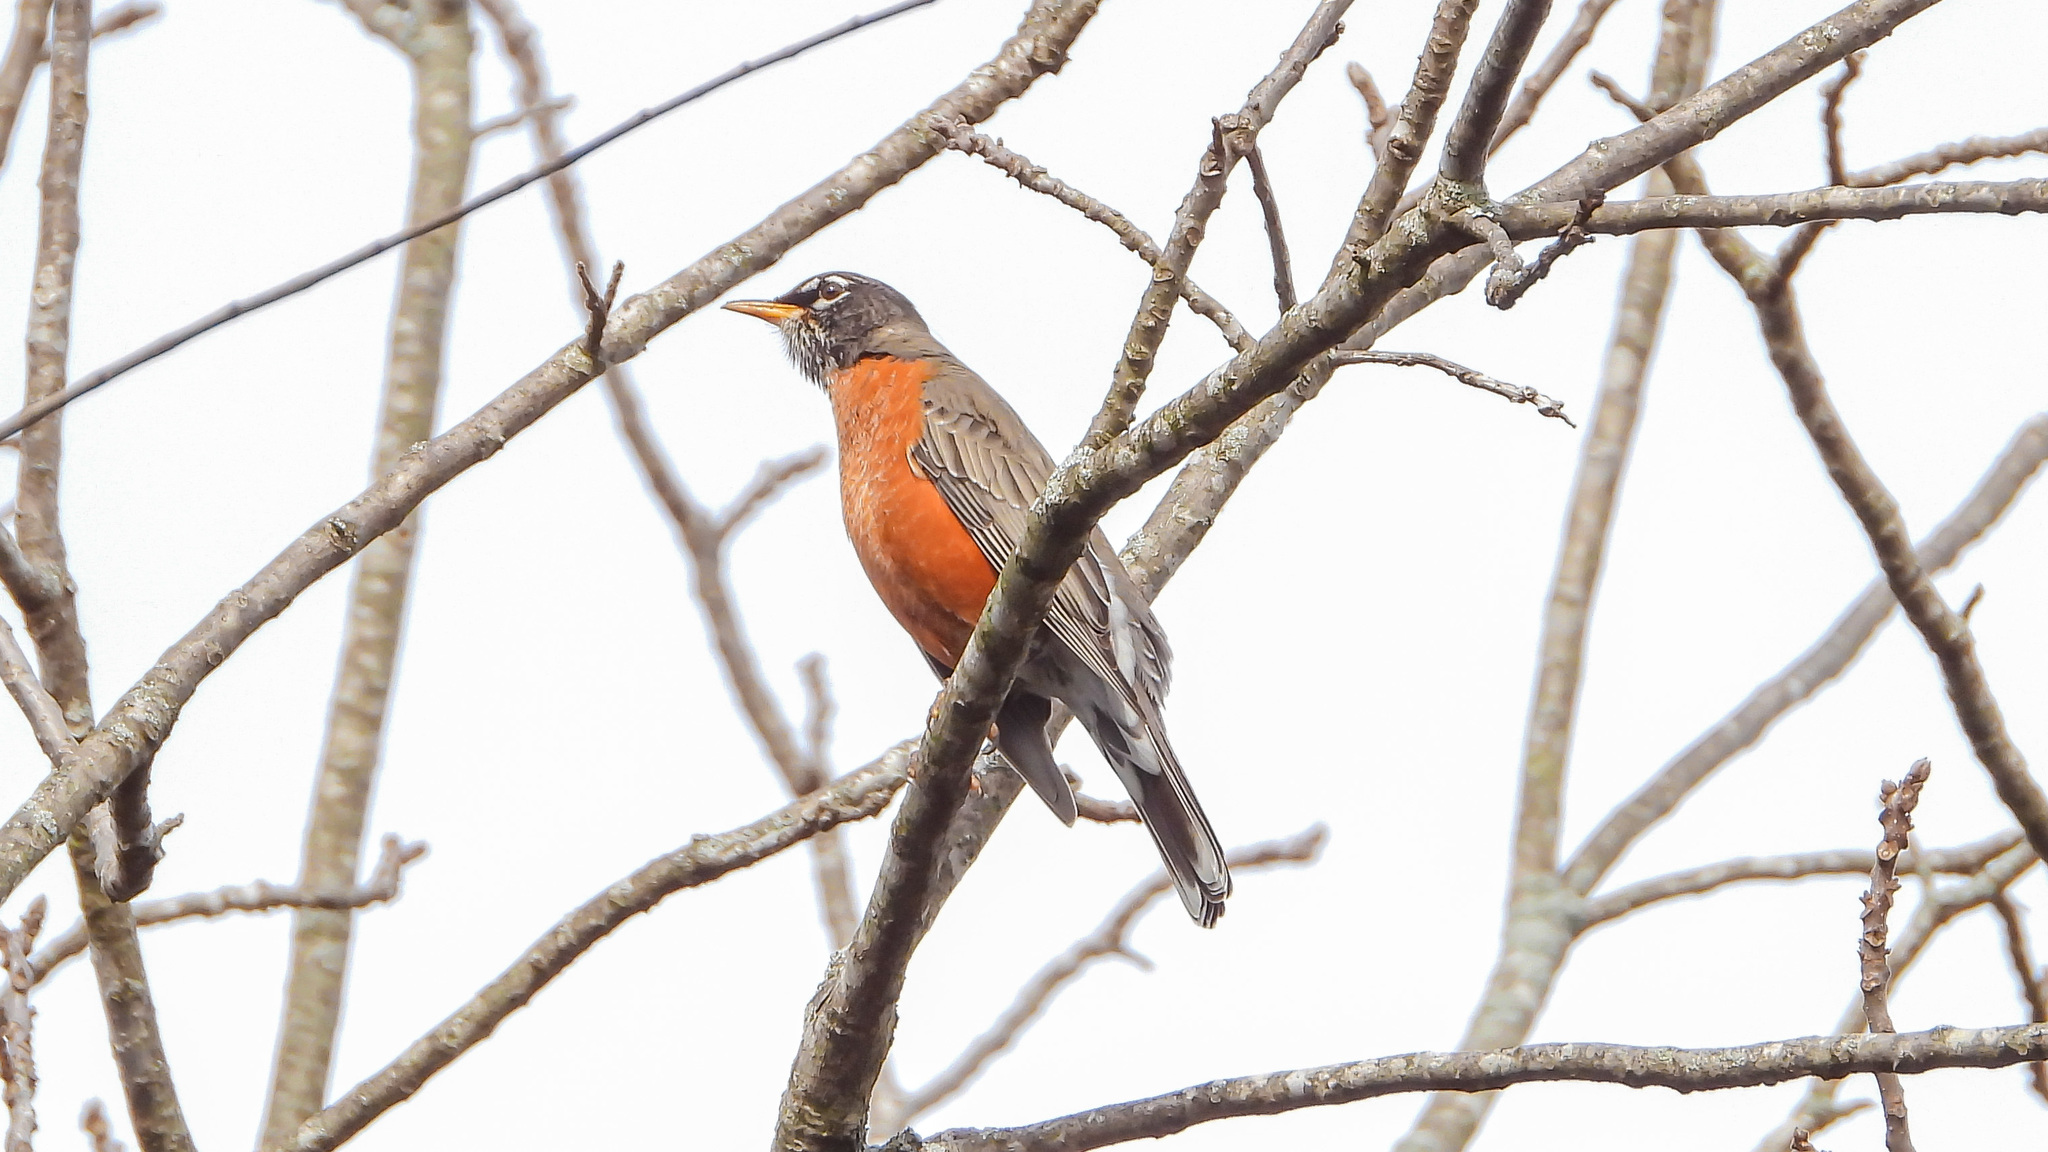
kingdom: Animalia
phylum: Chordata
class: Aves
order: Passeriformes
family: Turdidae
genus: Turdus
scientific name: Turdus migratorius
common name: American robin
